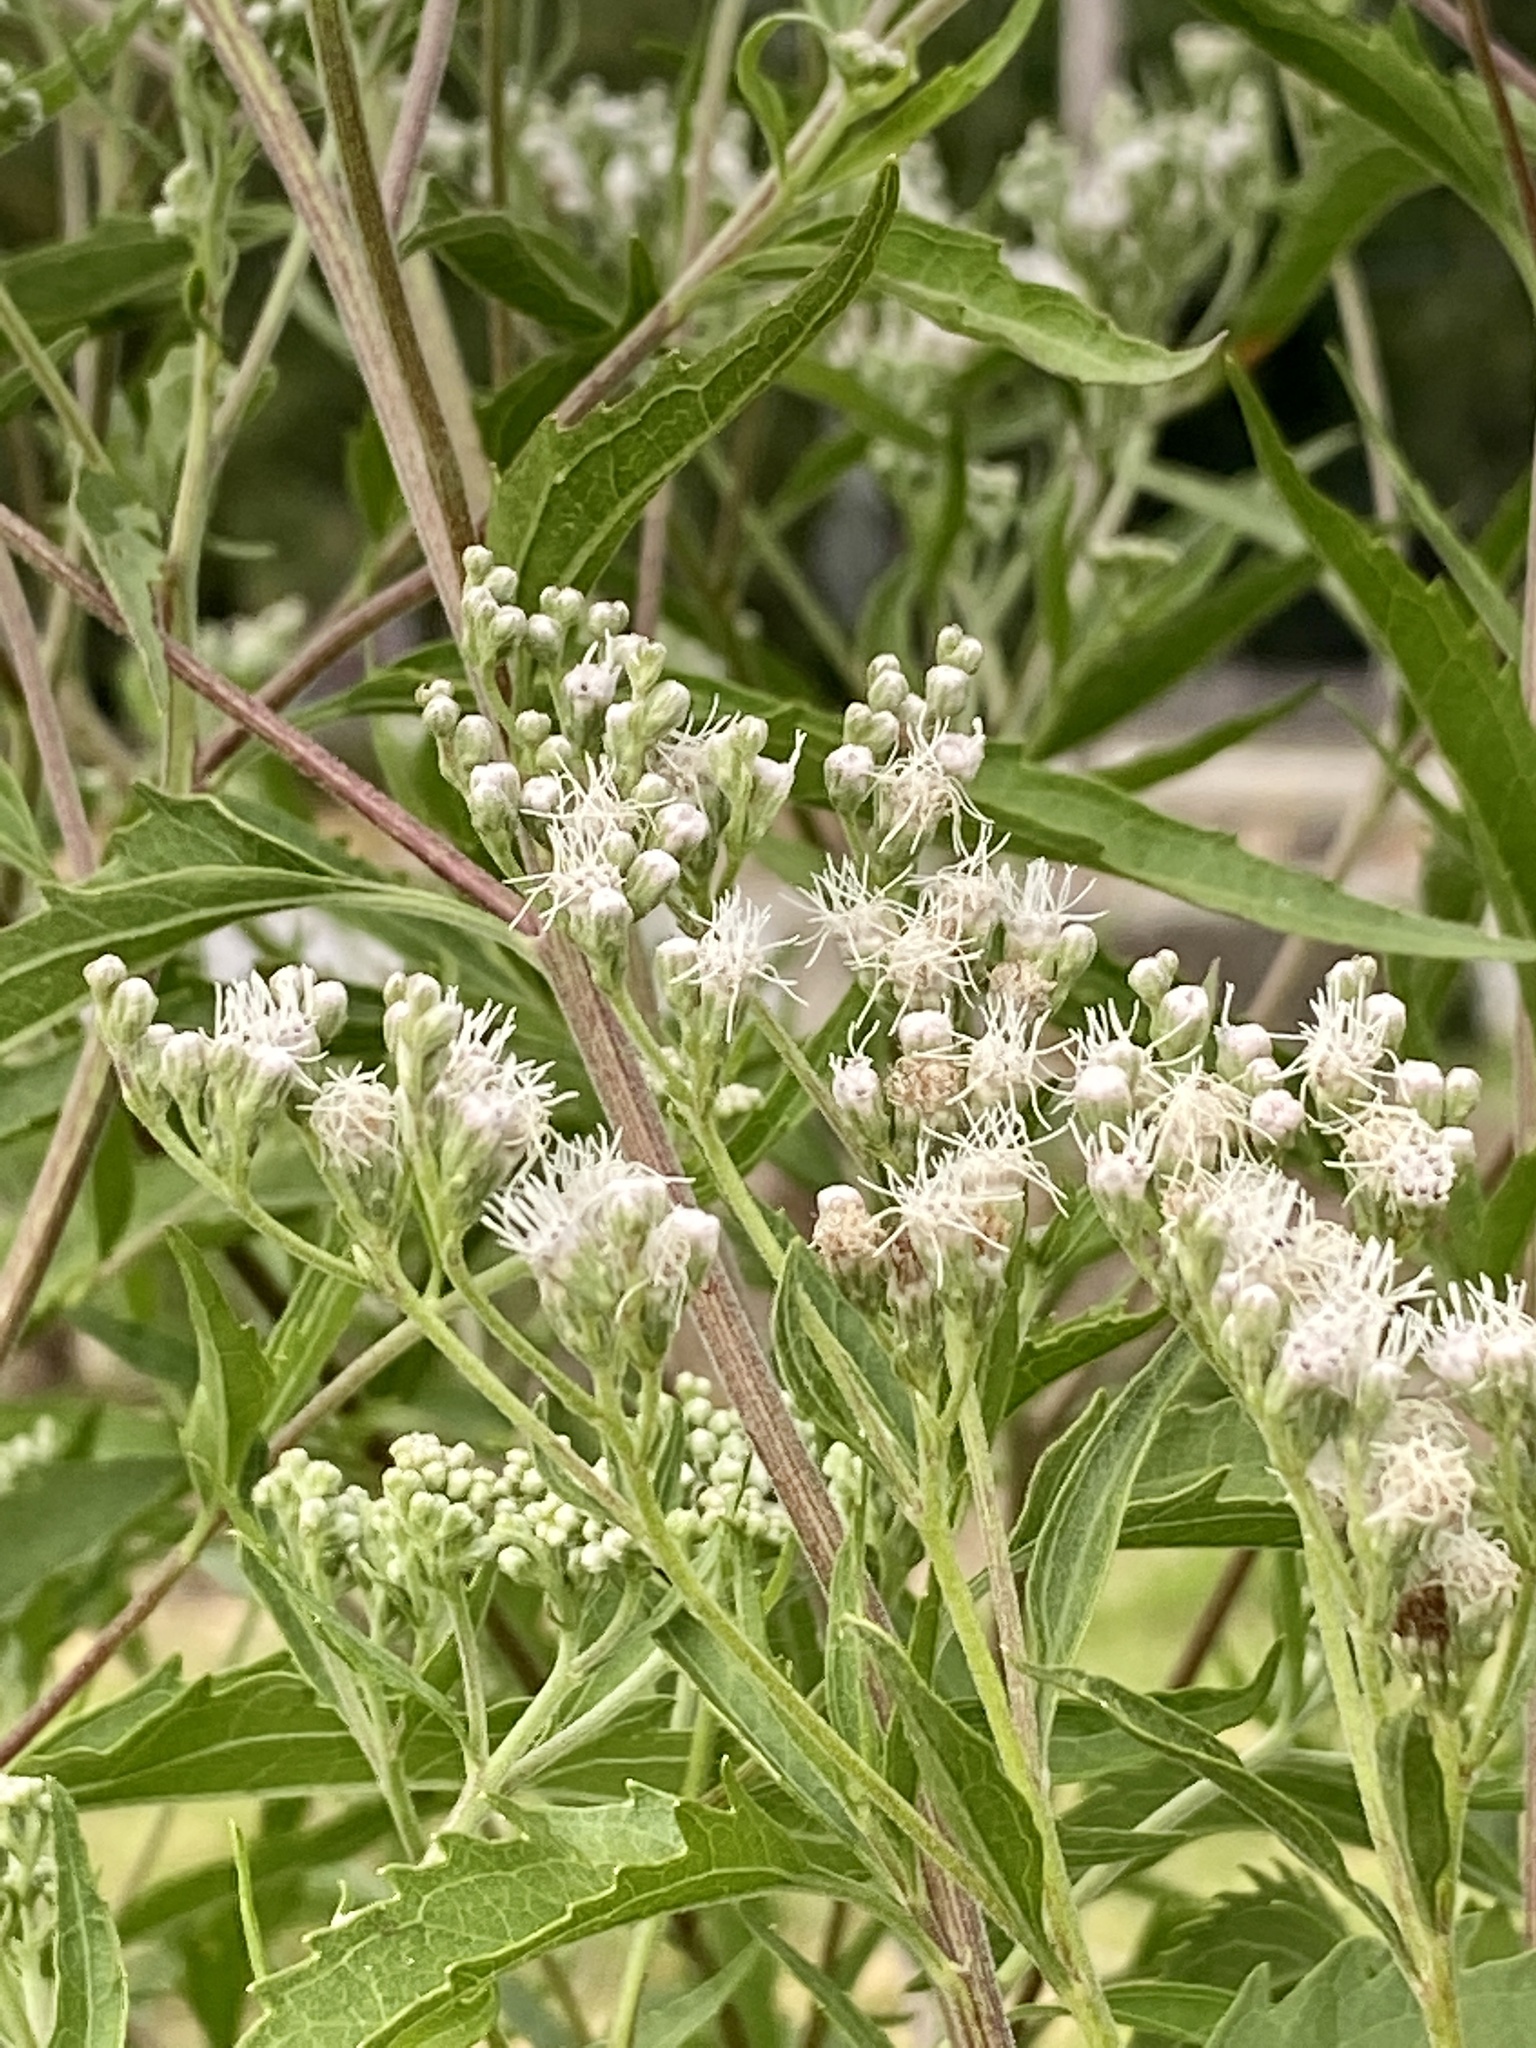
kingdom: Plantae
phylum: Tracheophyta
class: Magnoliopsida
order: Asterales
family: Asteraceae
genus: Eupatorium
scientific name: Eupatorium serotinum
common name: Late boneset
